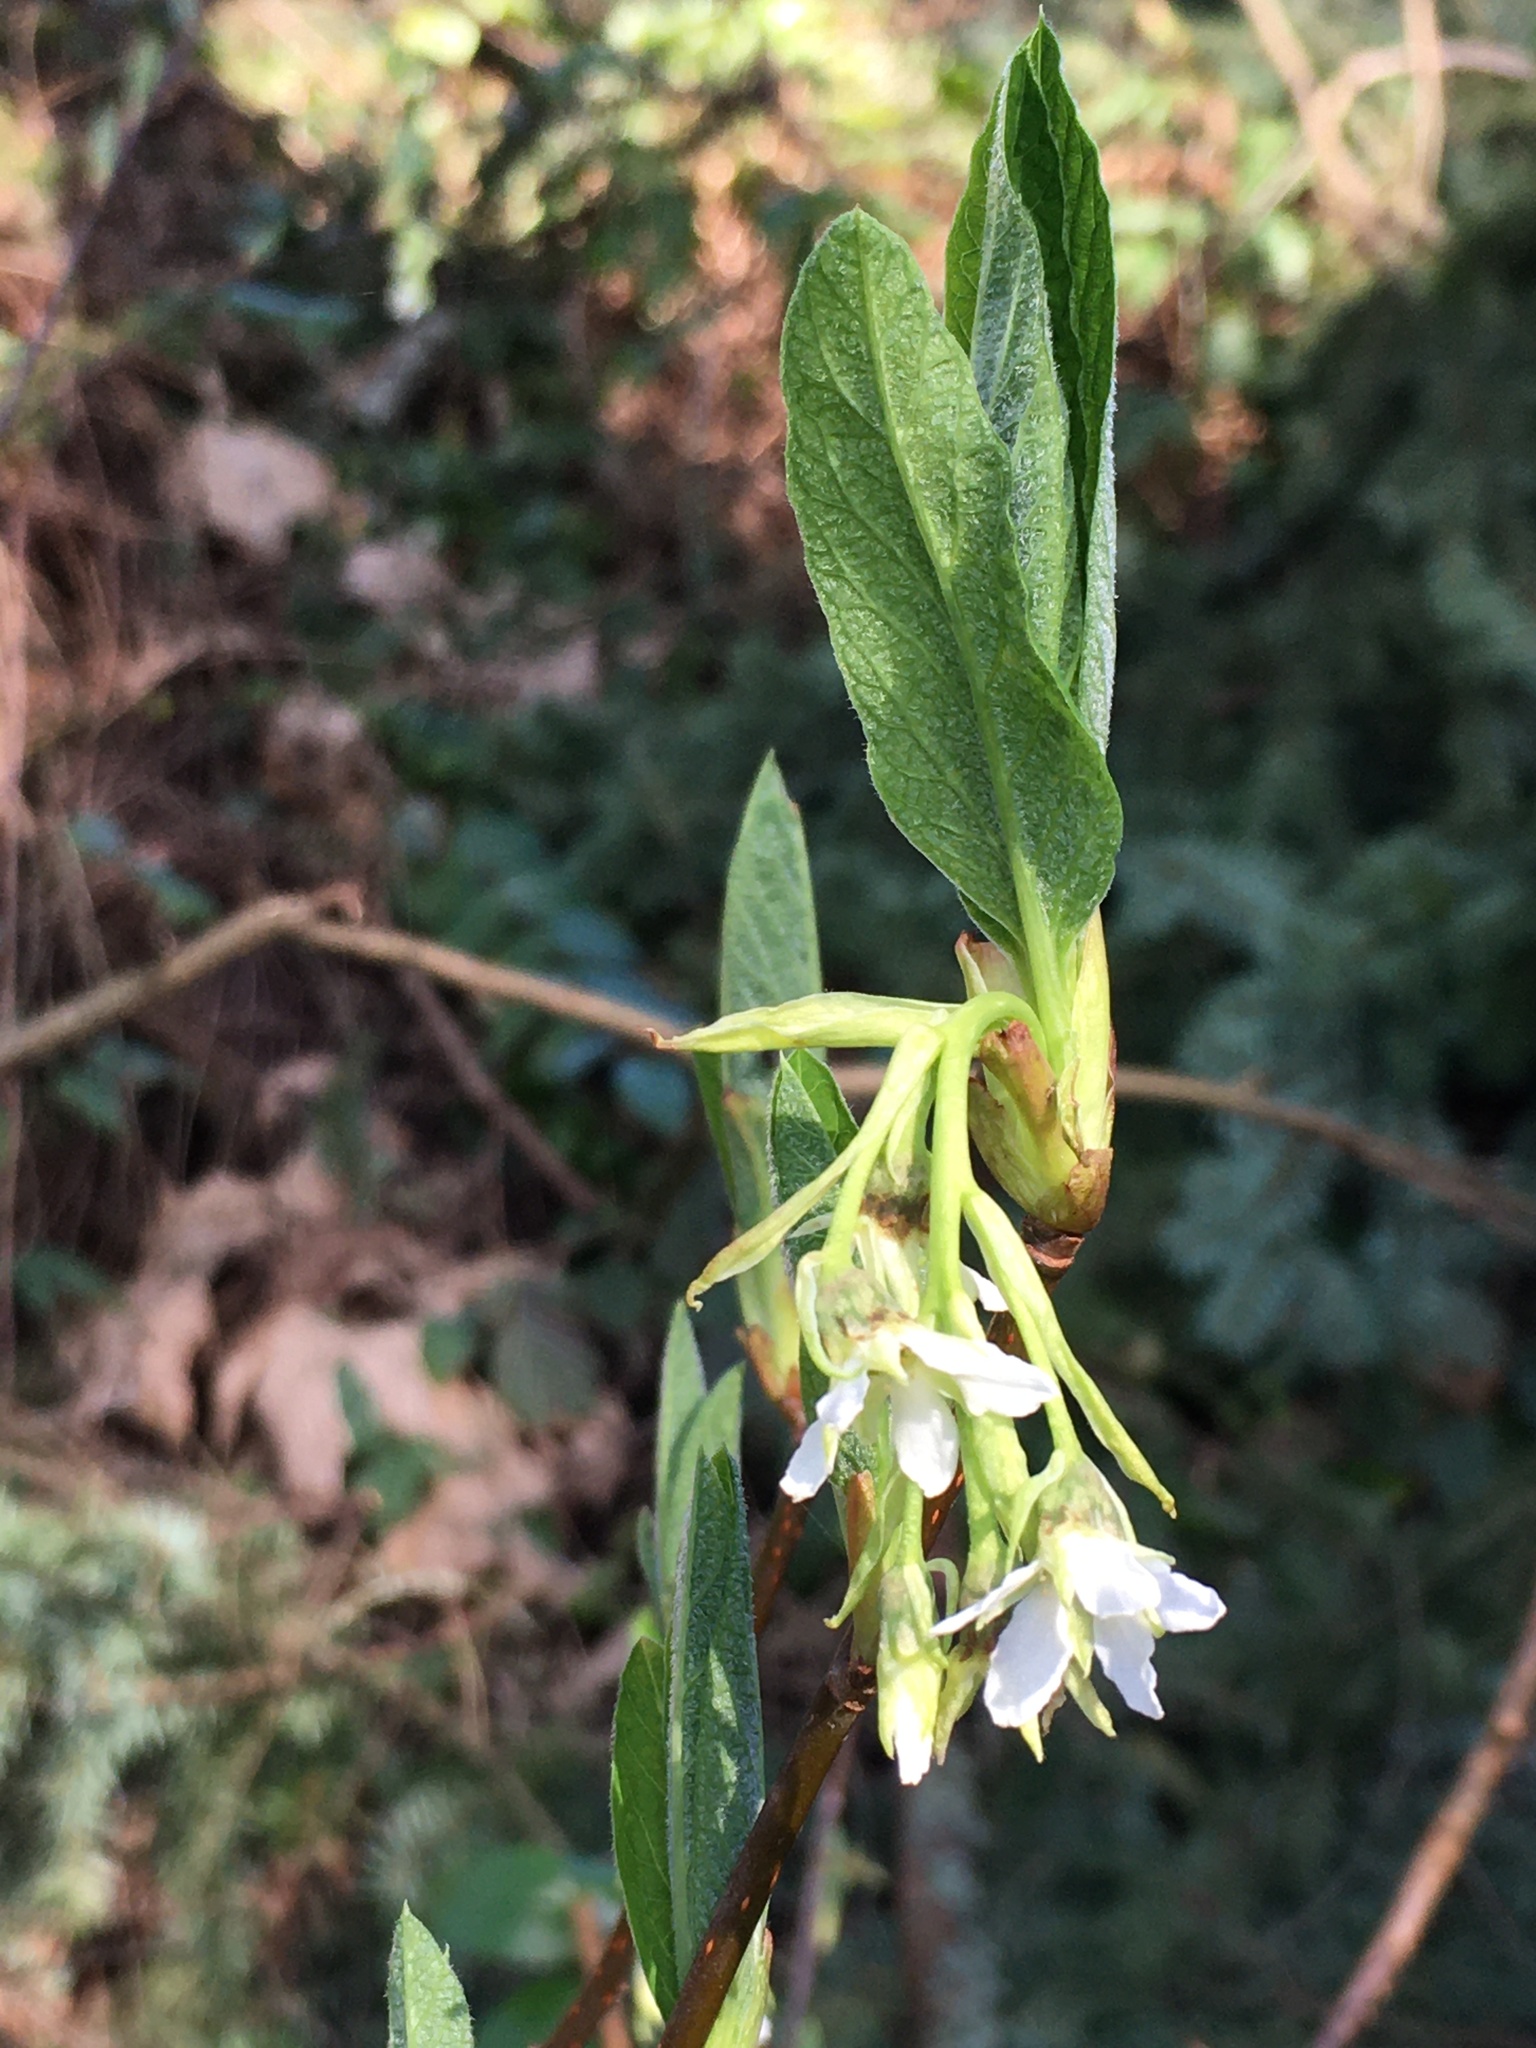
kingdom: Plantae
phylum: Tracheophyta
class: Magnoliopsida
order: Rosales
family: Rosaceae
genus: Oemleria
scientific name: Oemleria cerasiformis
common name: Osoberry
